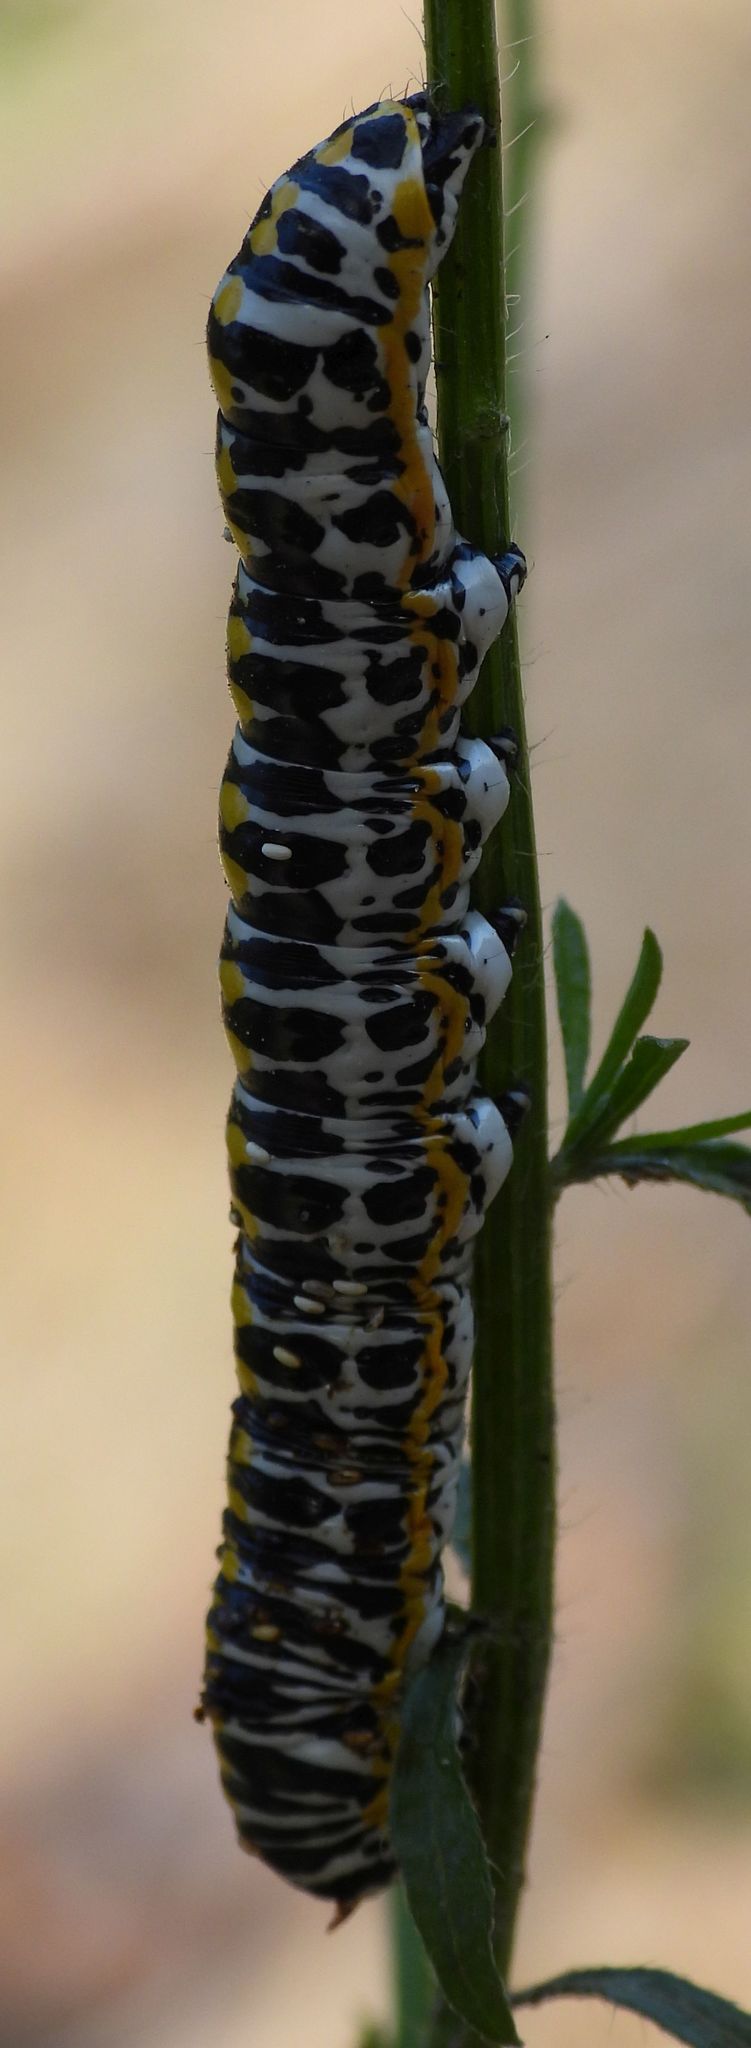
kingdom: Animalia
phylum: Arthropoda
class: Insecta
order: Lepidoptera
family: Noctuidae
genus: Cucullia
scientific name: Cucullia speyeri
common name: Speyer's cucullia moth
